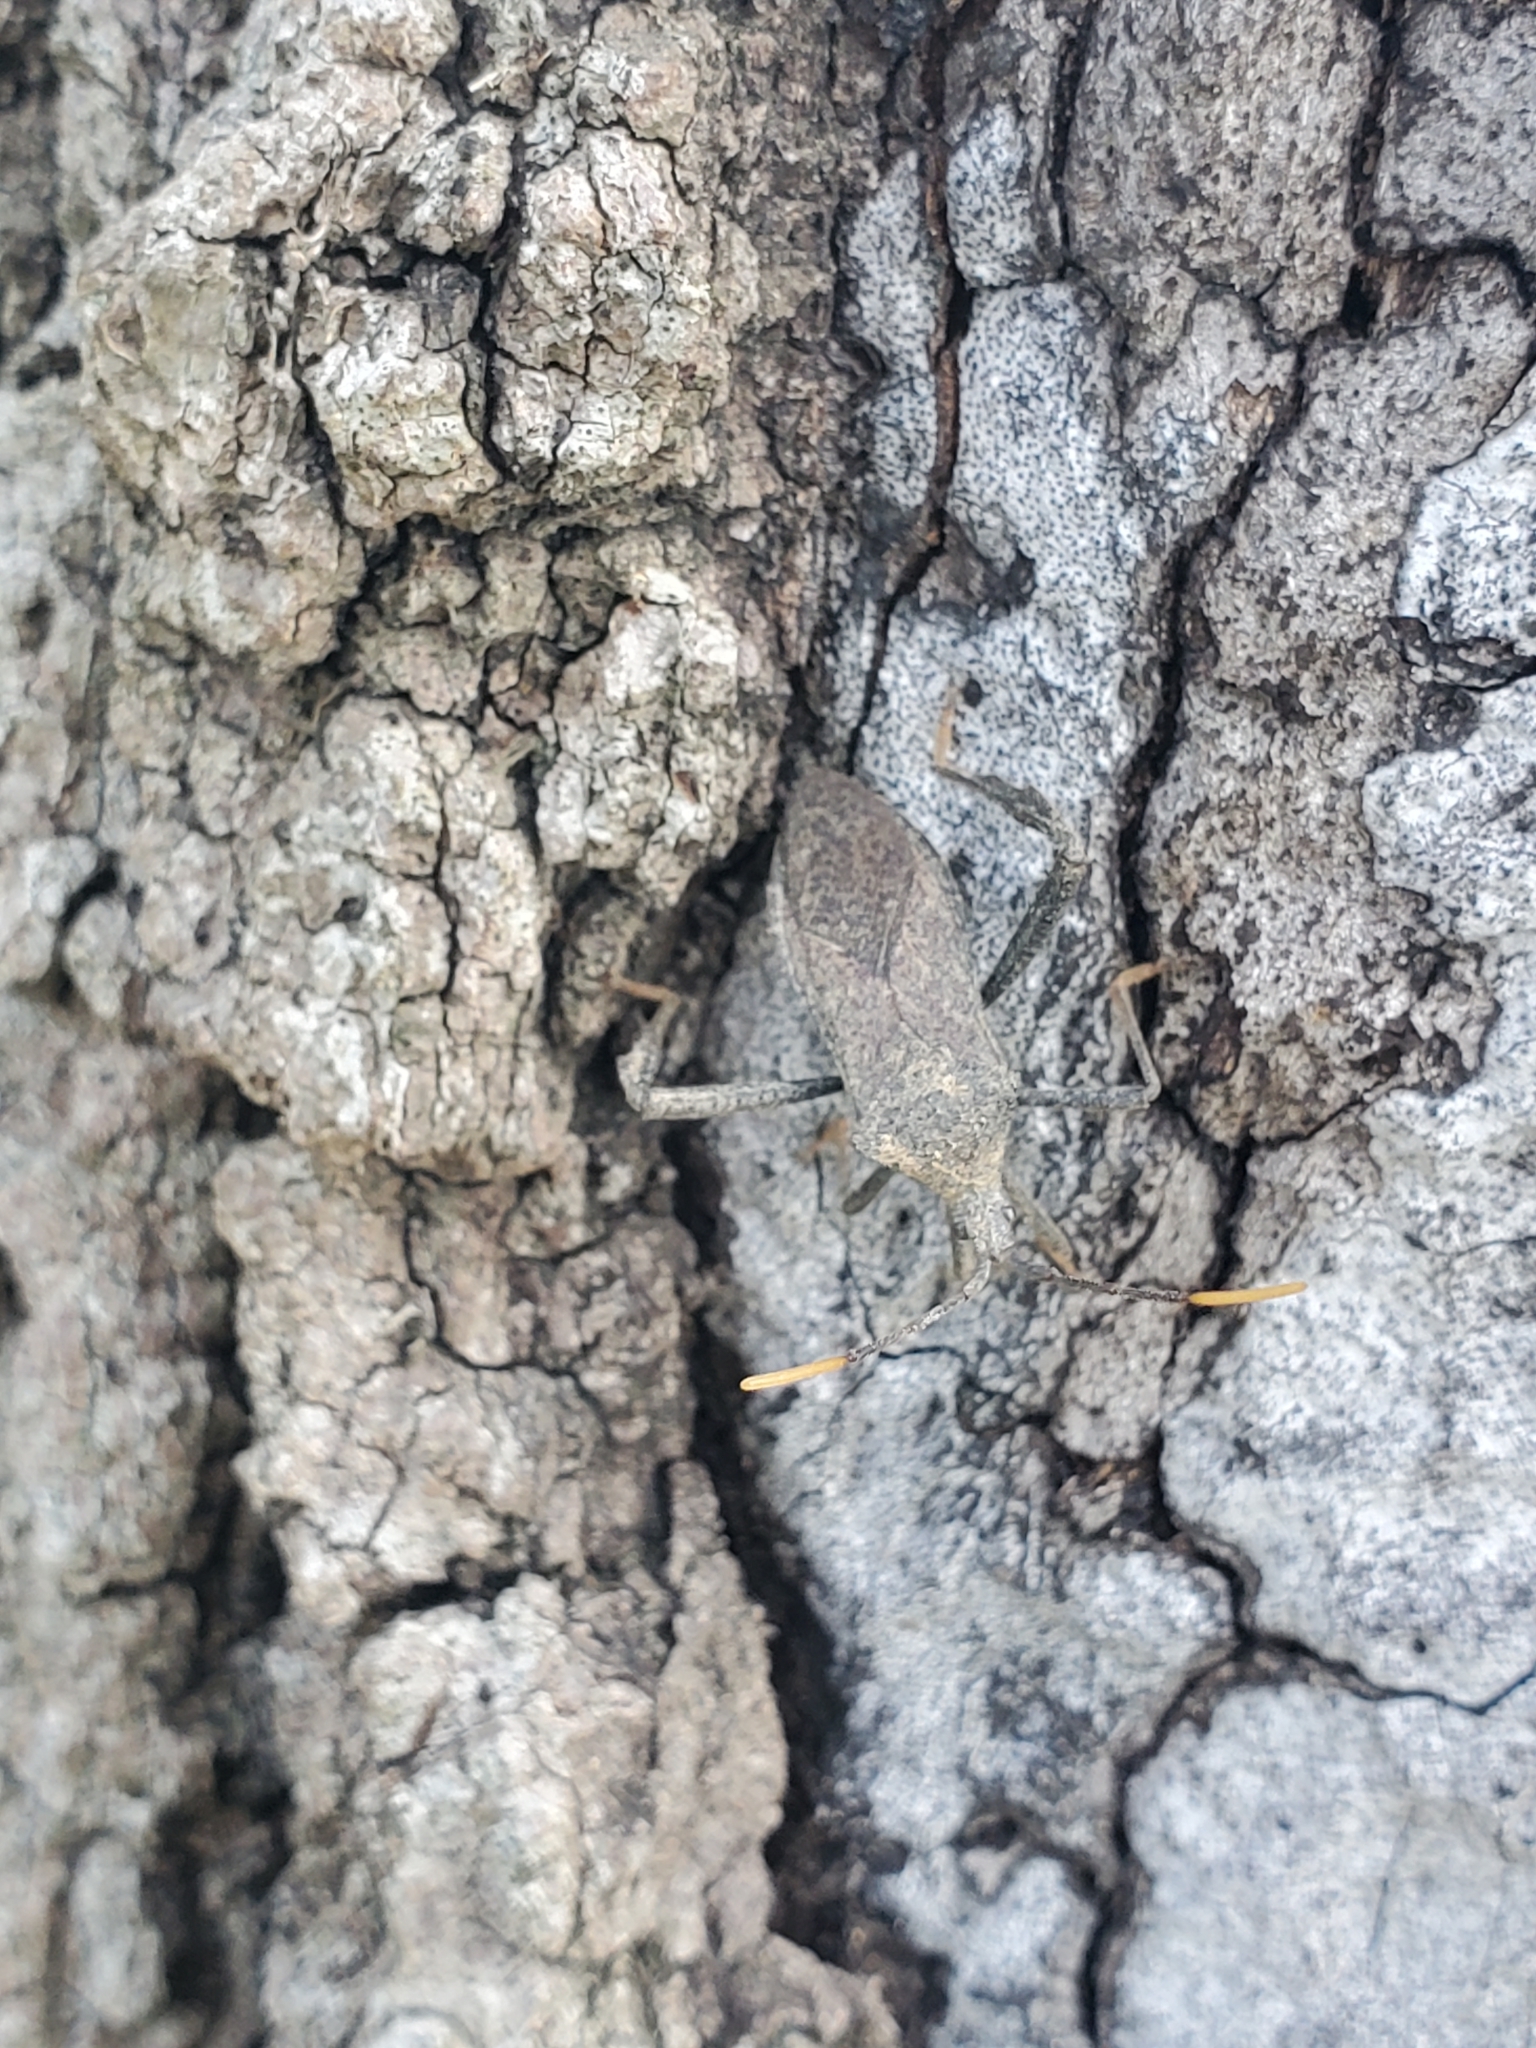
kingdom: Animalia
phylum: Arthropoda
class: Insecta
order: Hemiptera
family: Coreidae
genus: Acanthocephala
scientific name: Acanthocephala terminalis
